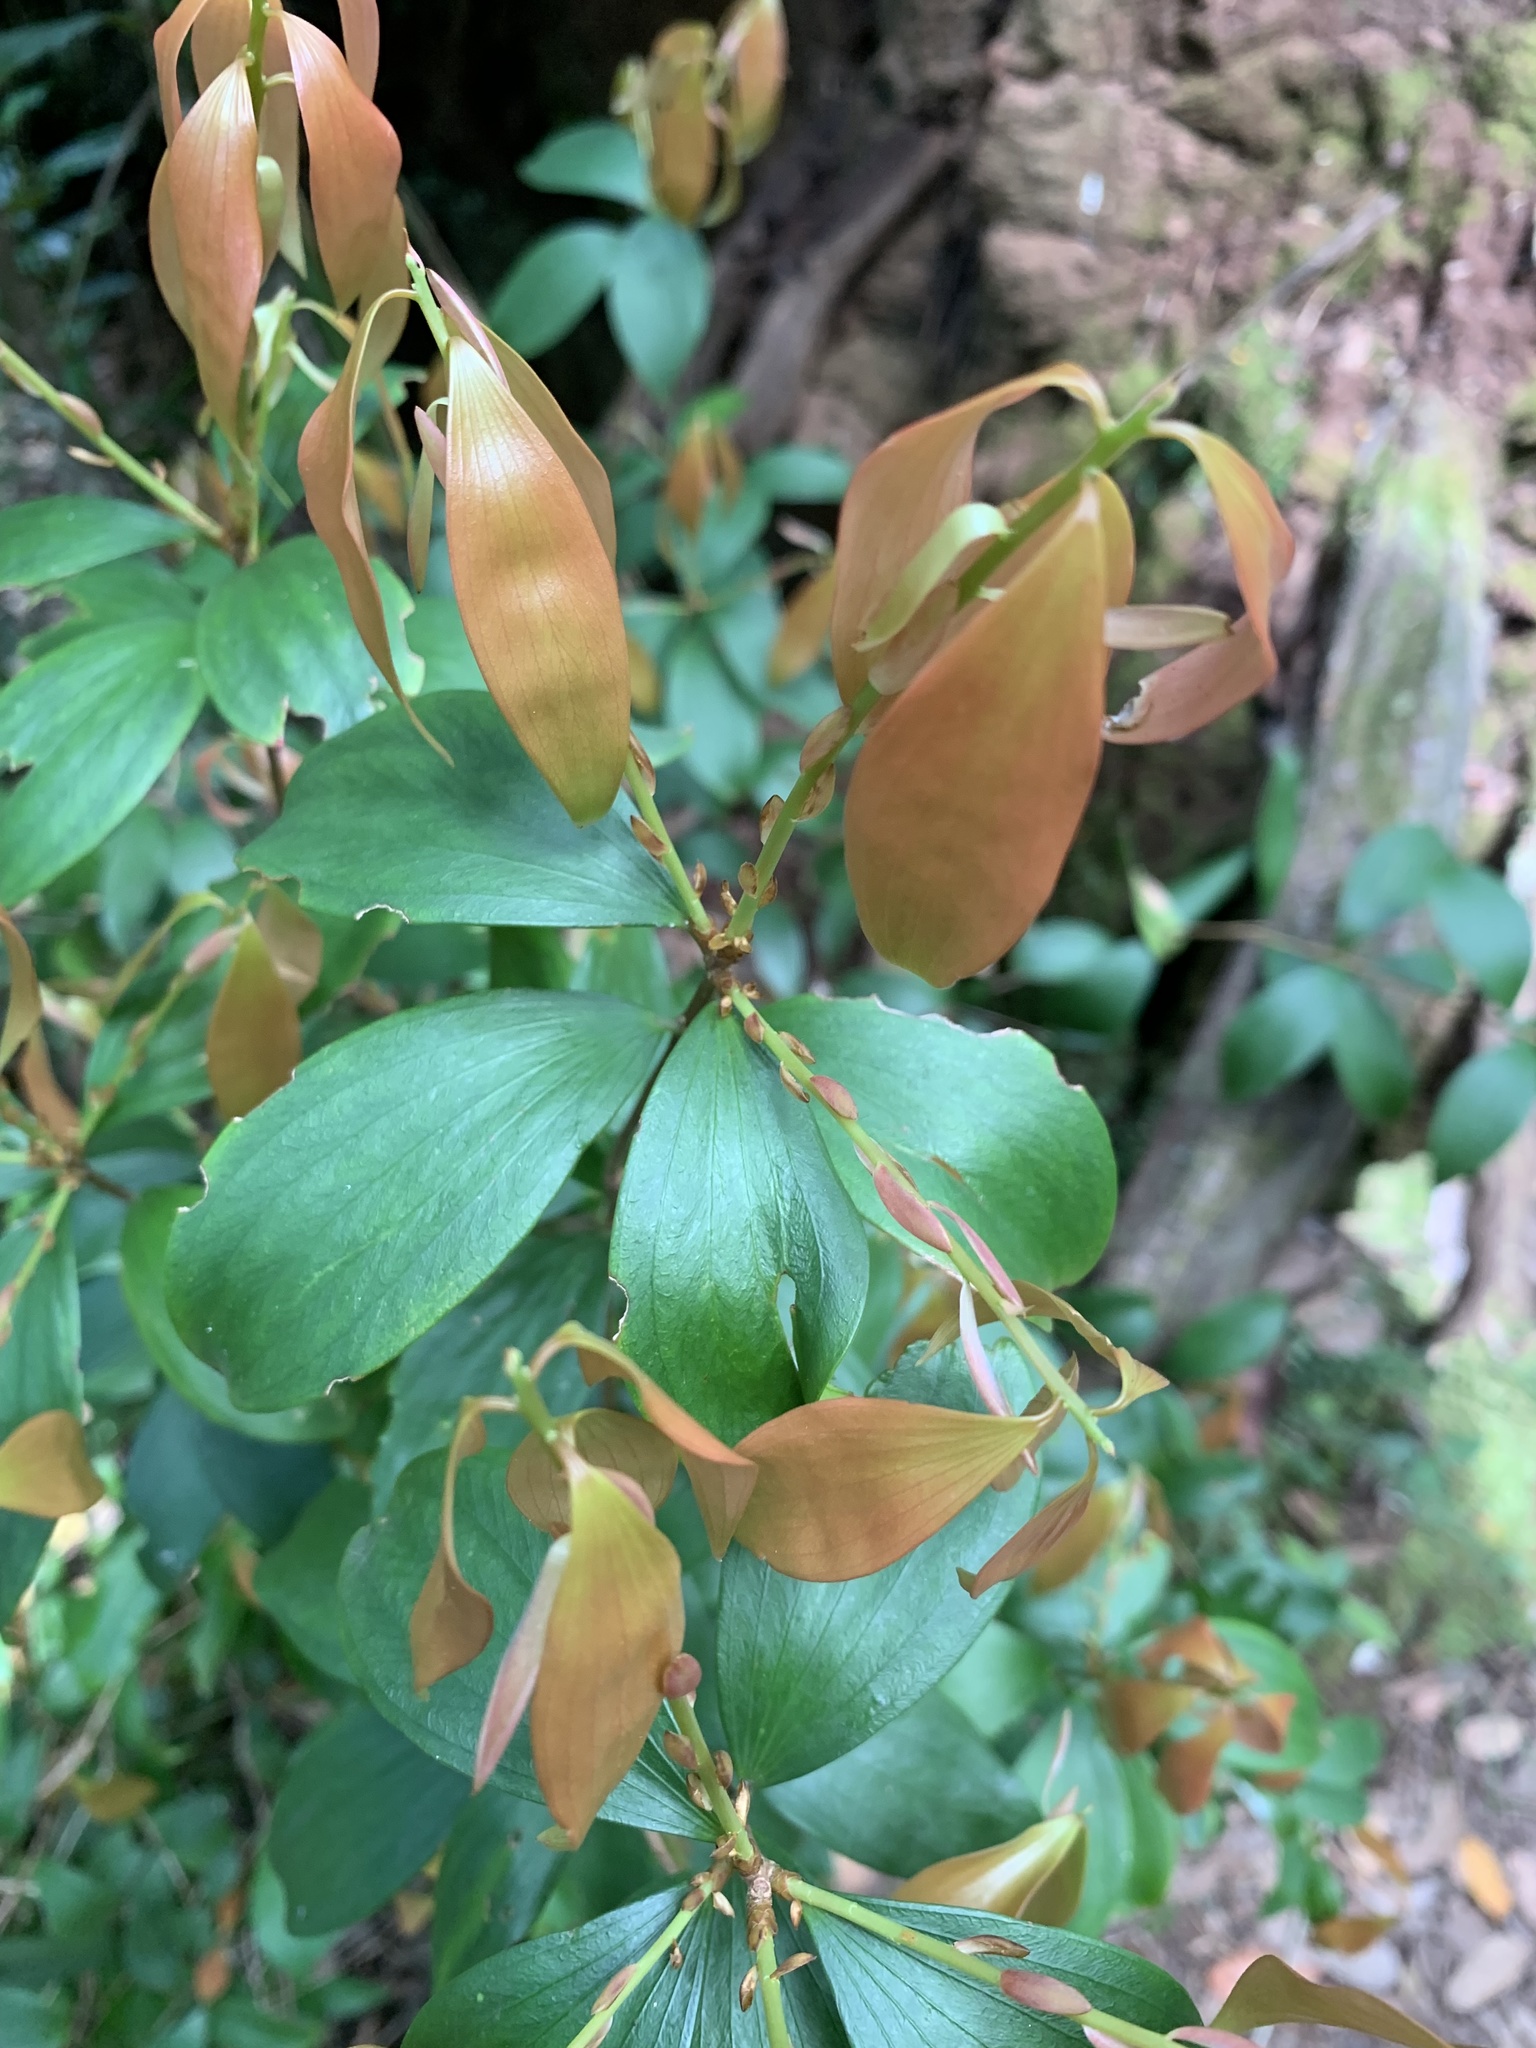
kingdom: Plantae
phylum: Tracheophyta
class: Magnoliopsida
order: Ericales
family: Ericaceae
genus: Trochocarpa
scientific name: Trochocarpa laurina
